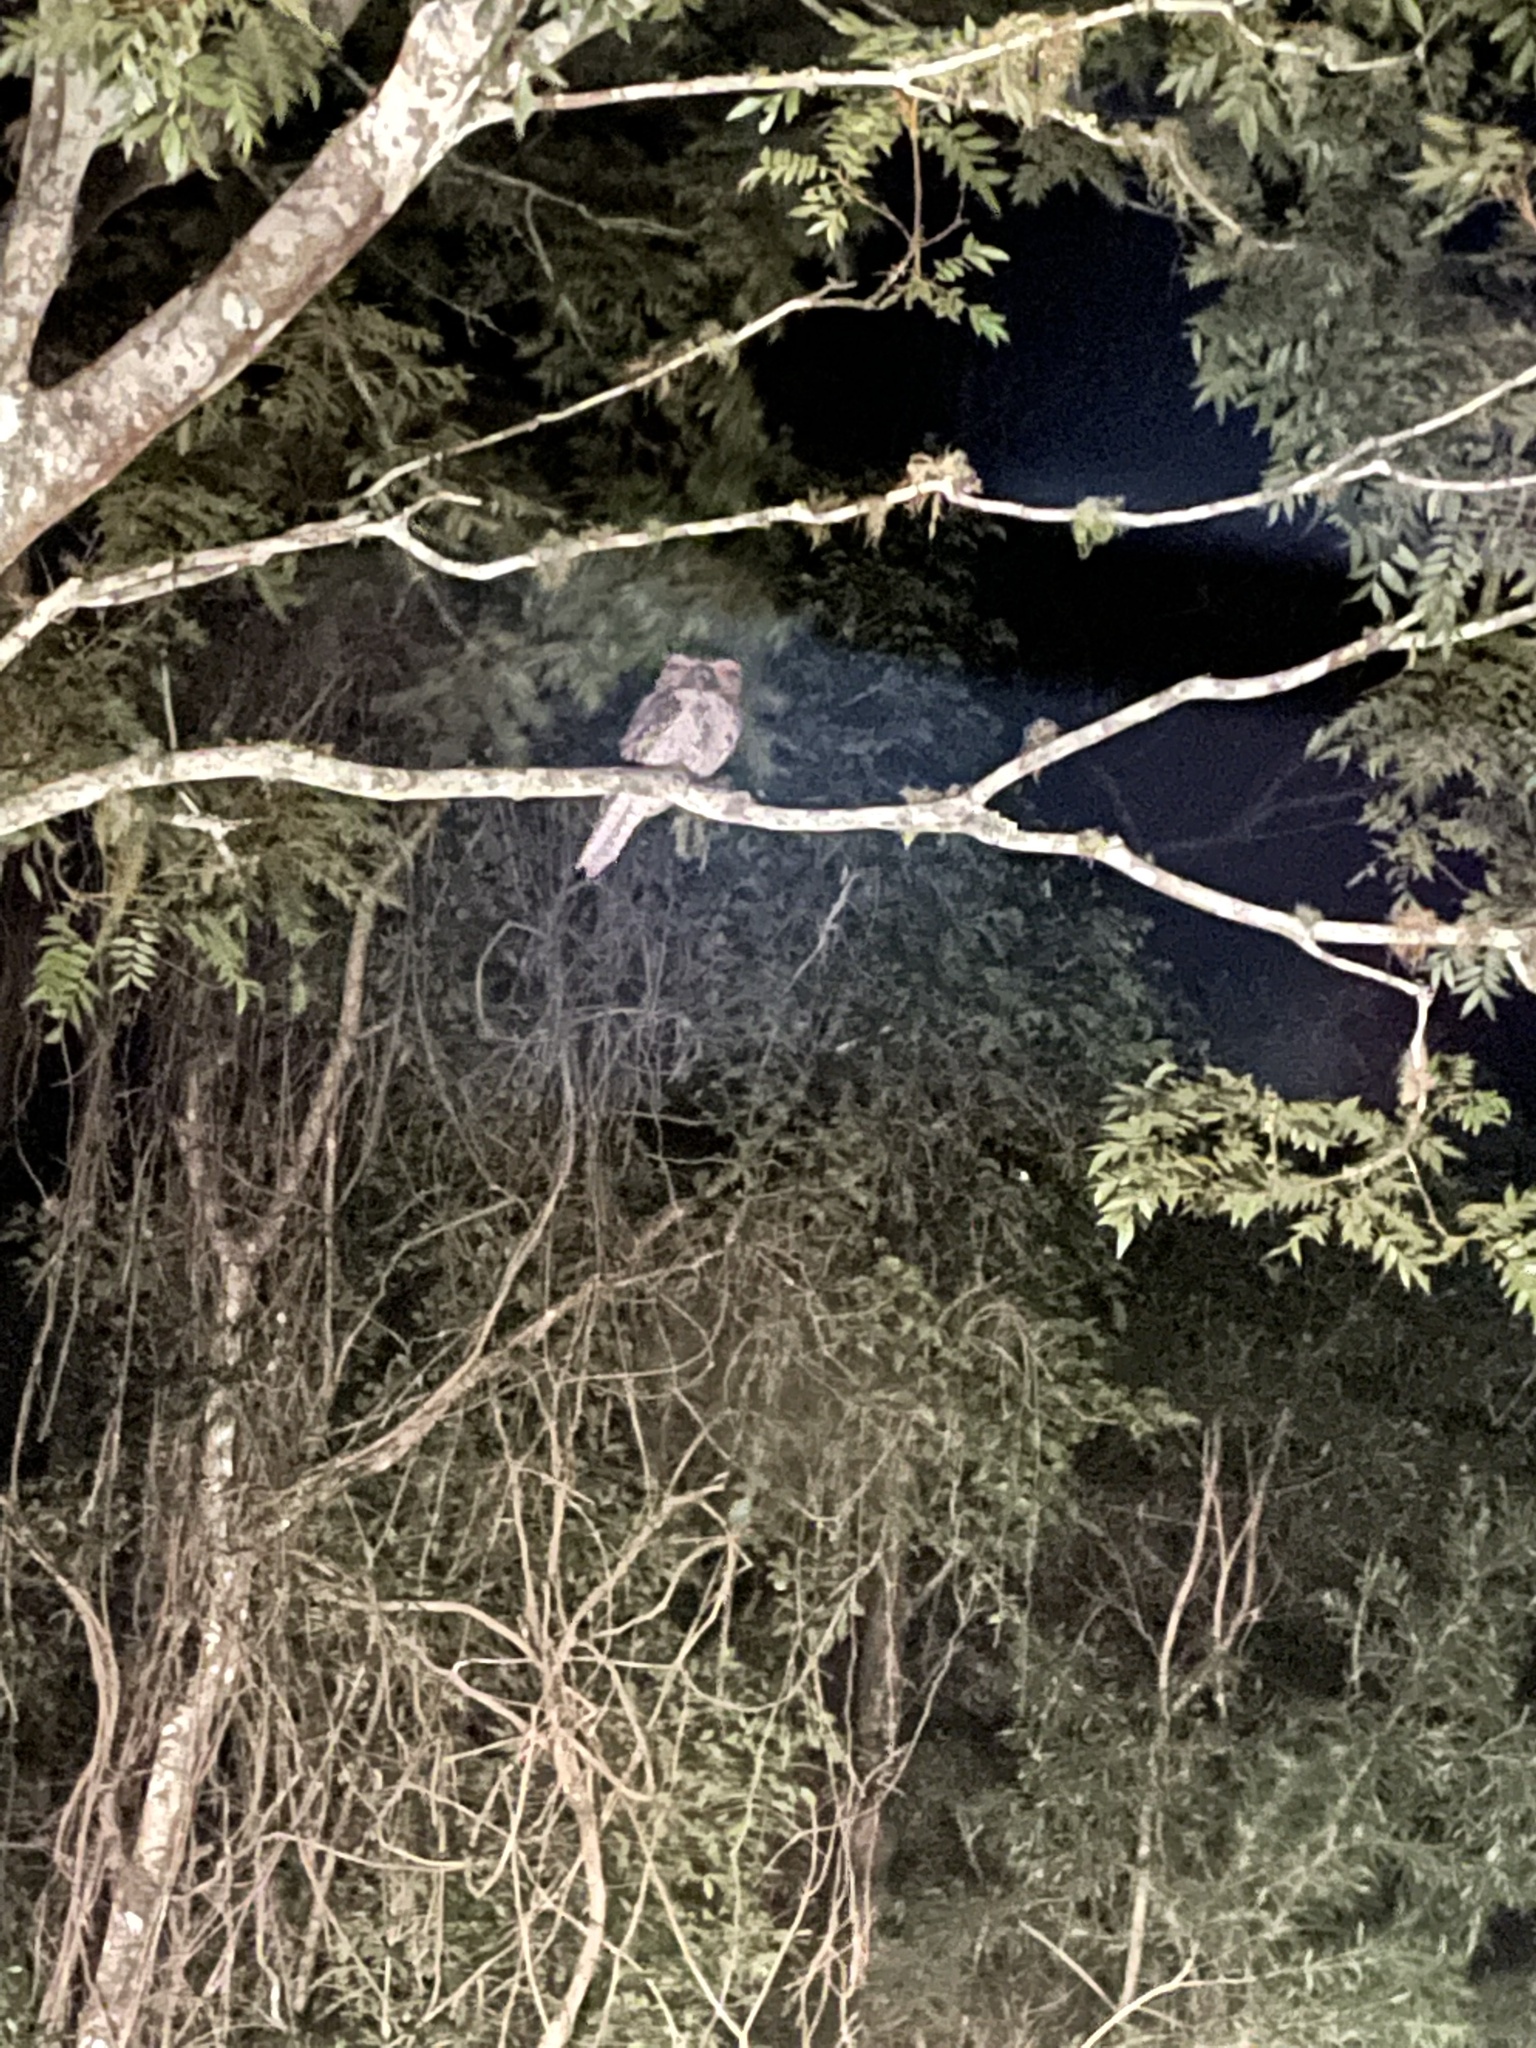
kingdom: Animalia
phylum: Chordata
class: Aves
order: Caprimulgiformes
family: Podargidae
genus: Podargus
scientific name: Podargus strigoides
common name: Tawny frogmouth
